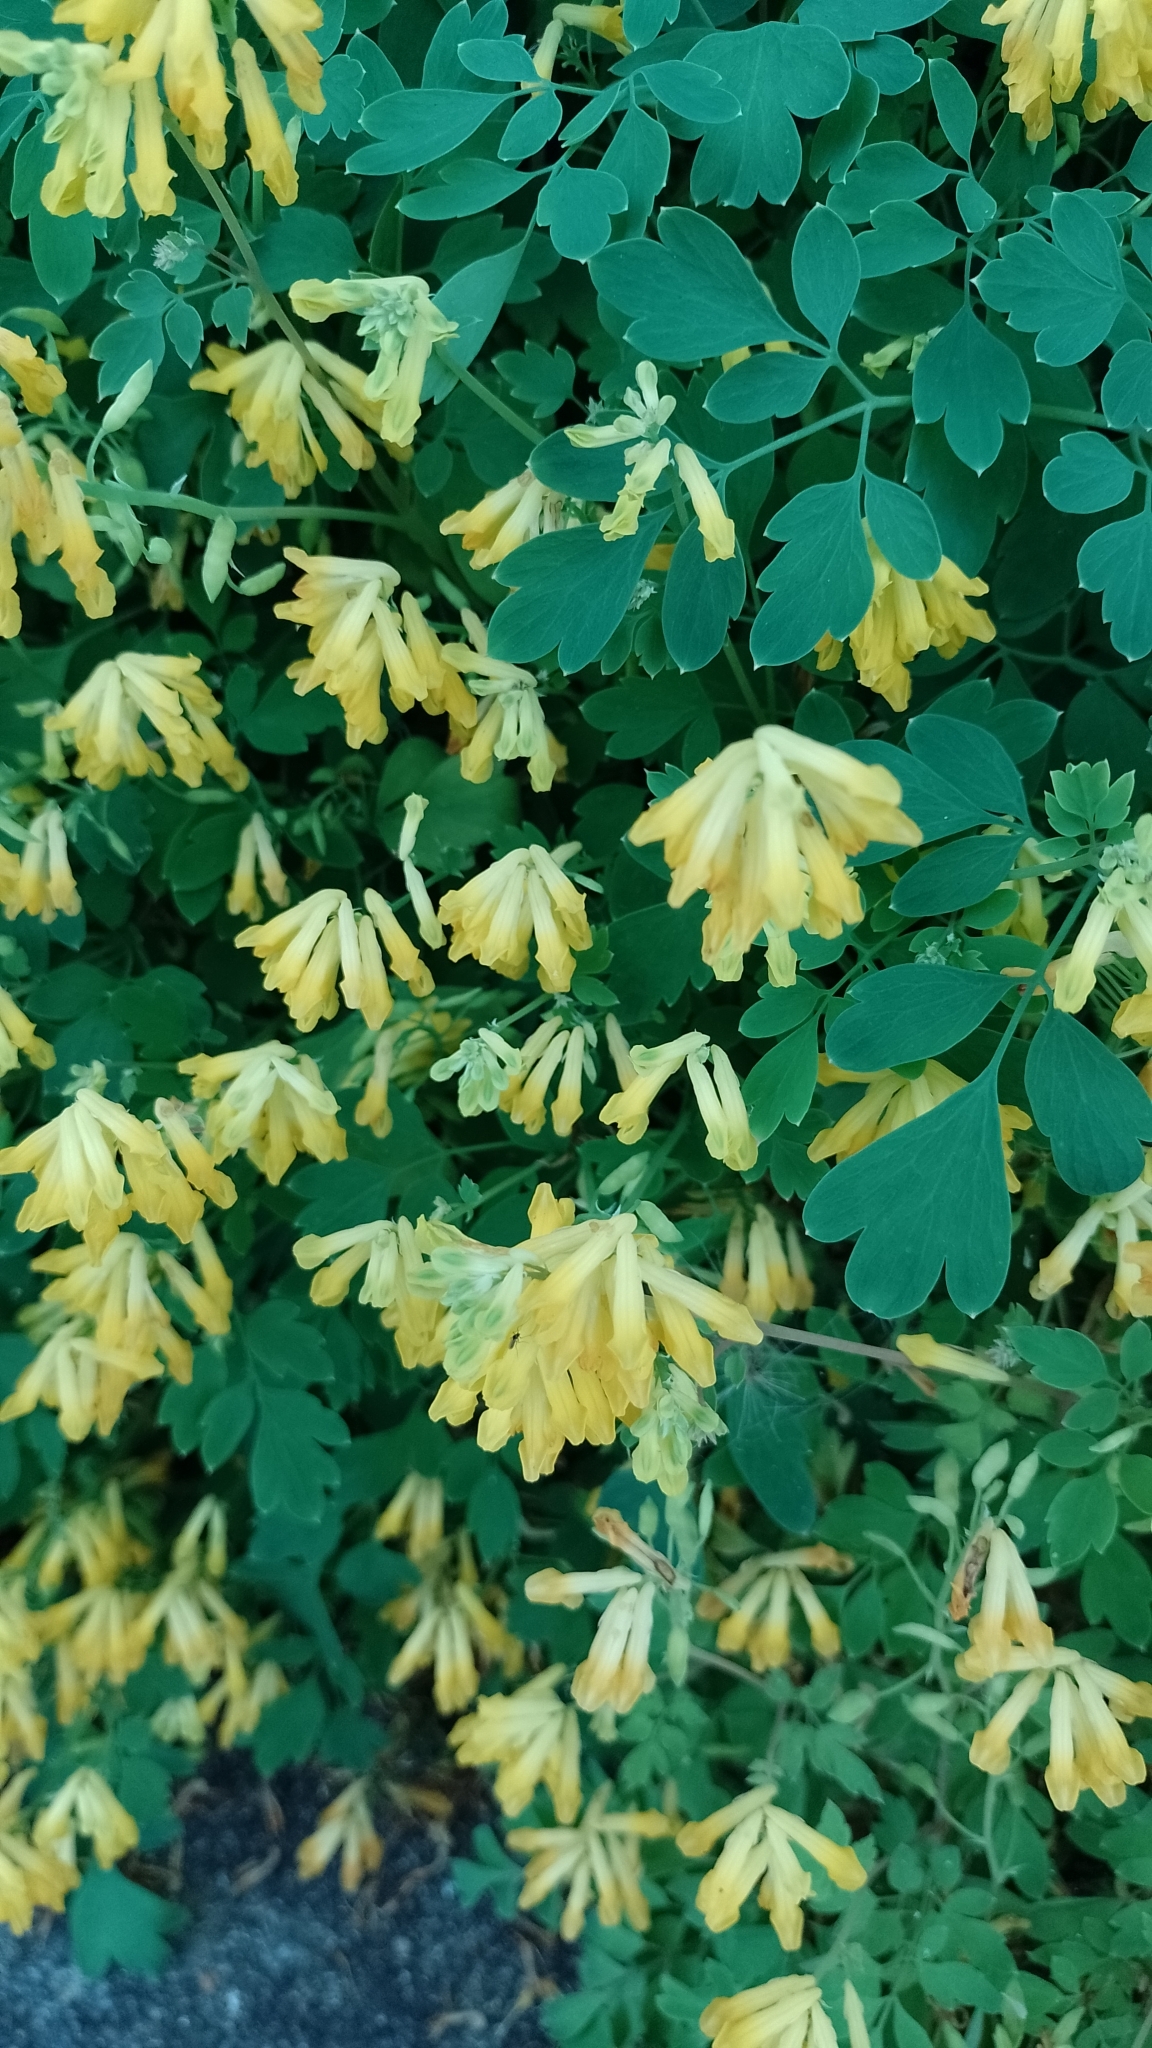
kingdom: Plantae
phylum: Tracheophyta
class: Magnoliopsida
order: Ranunculales
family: Papaveraceae
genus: Pseudofumaria
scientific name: Pseudofumaria lutea
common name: Yellow corydalis
